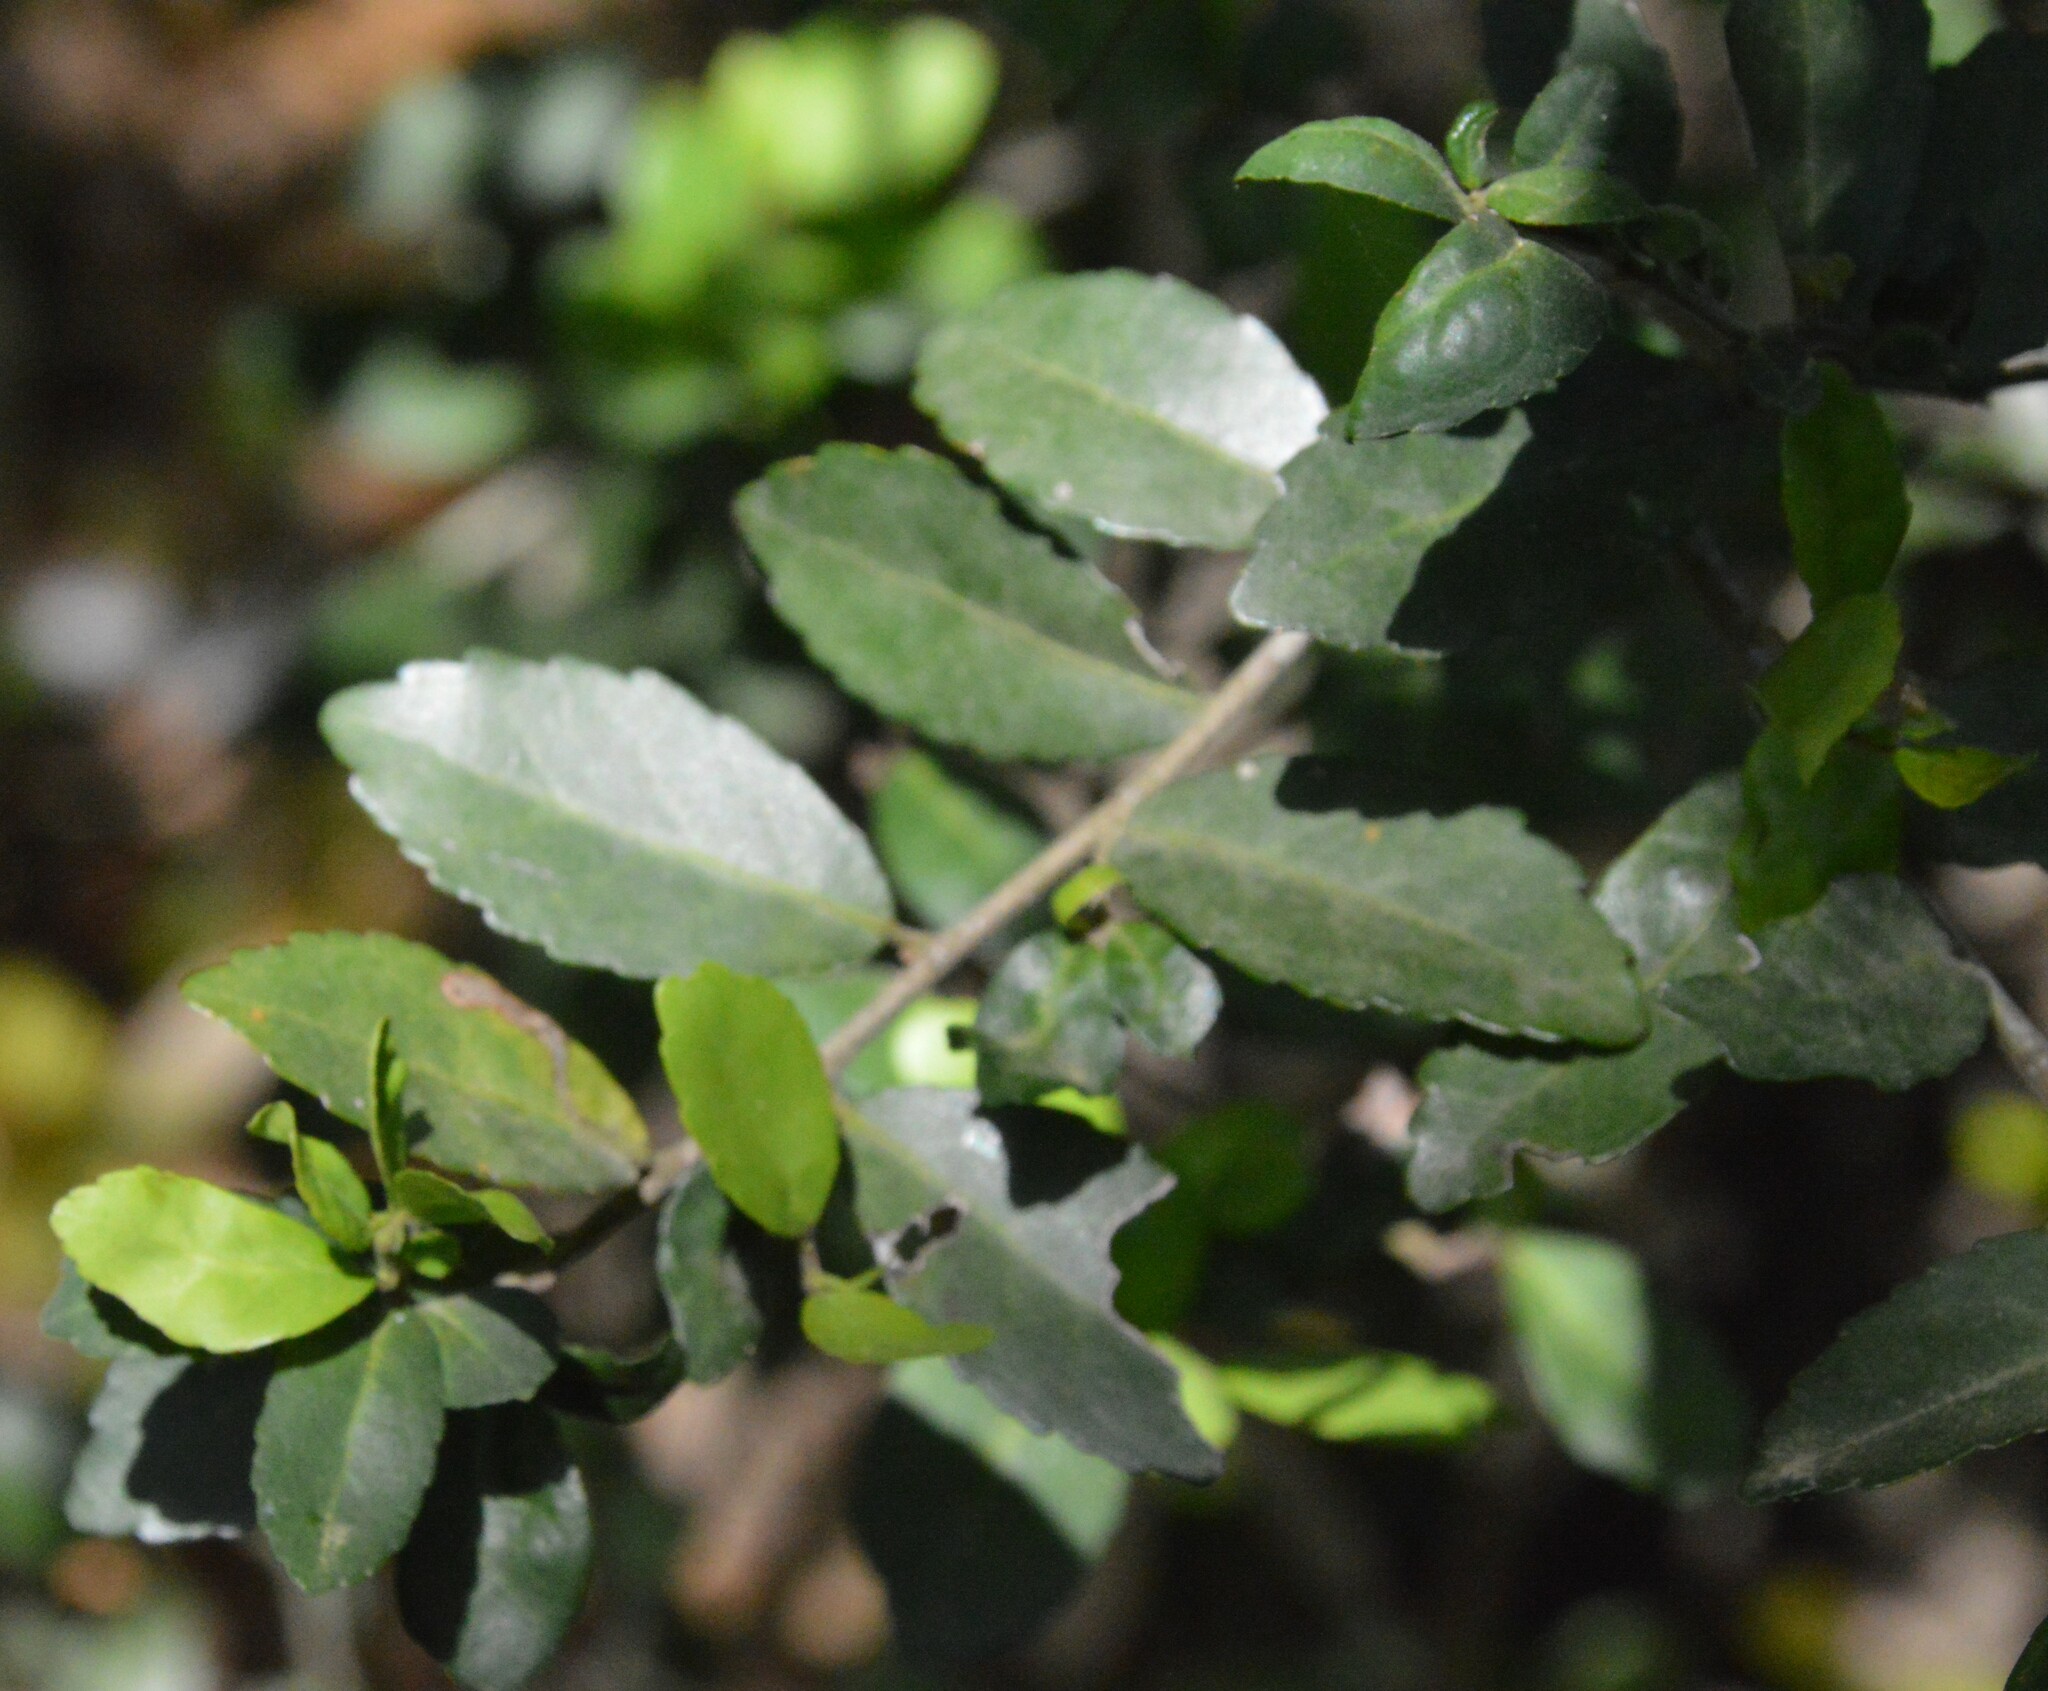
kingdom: Plantae
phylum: Tracheophyta
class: Magnoliopsida
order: Aquifoliales
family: Aquifoliaceae
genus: Ilex
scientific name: Ilex vomitoria
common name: Yaupon holly
